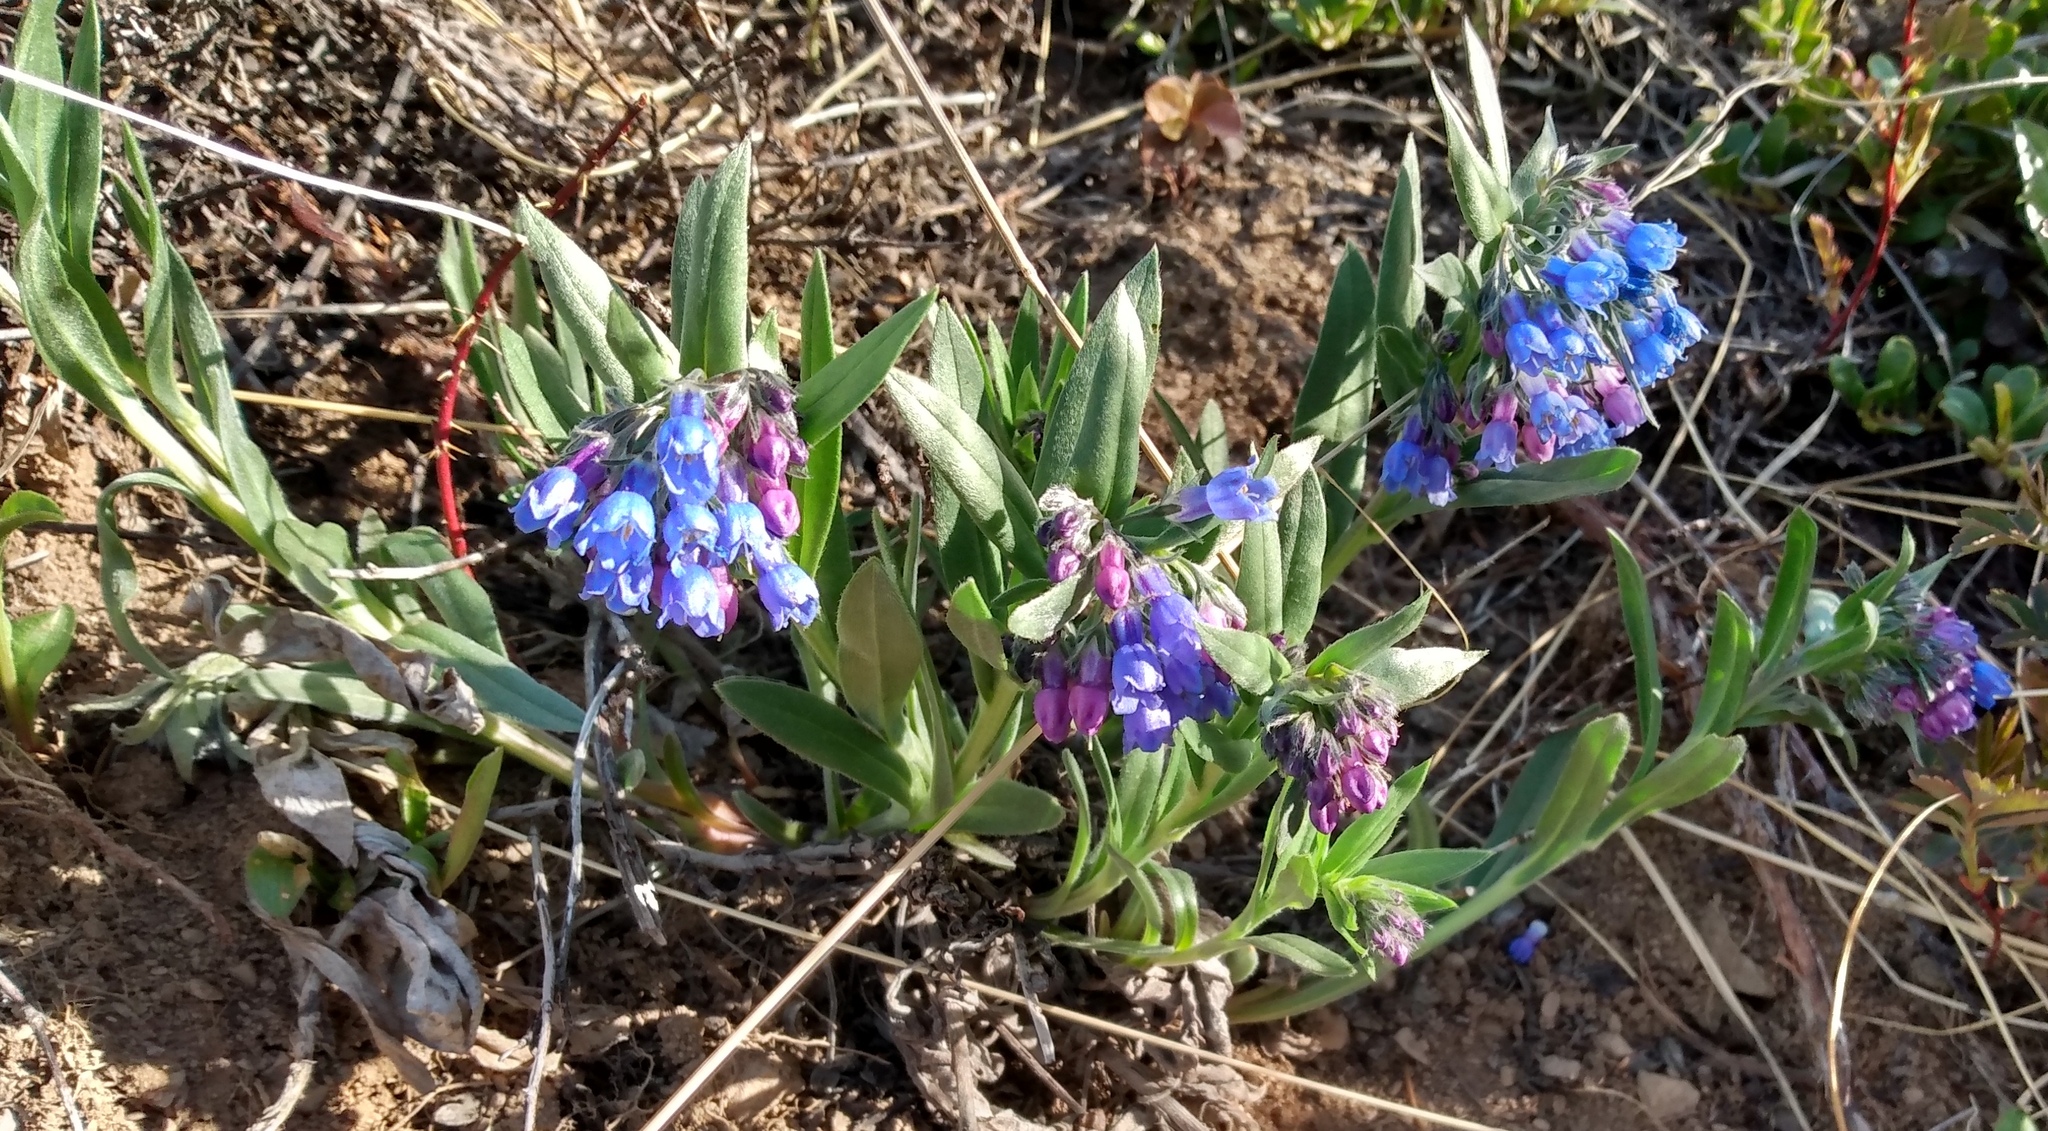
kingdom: Plantae
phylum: Tracheophyta
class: Magnoliopsida
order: Boraginales
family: Boraginaceae
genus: Mertensia
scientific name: Mertensia lanceolata
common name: Lance-leaved bluebells
